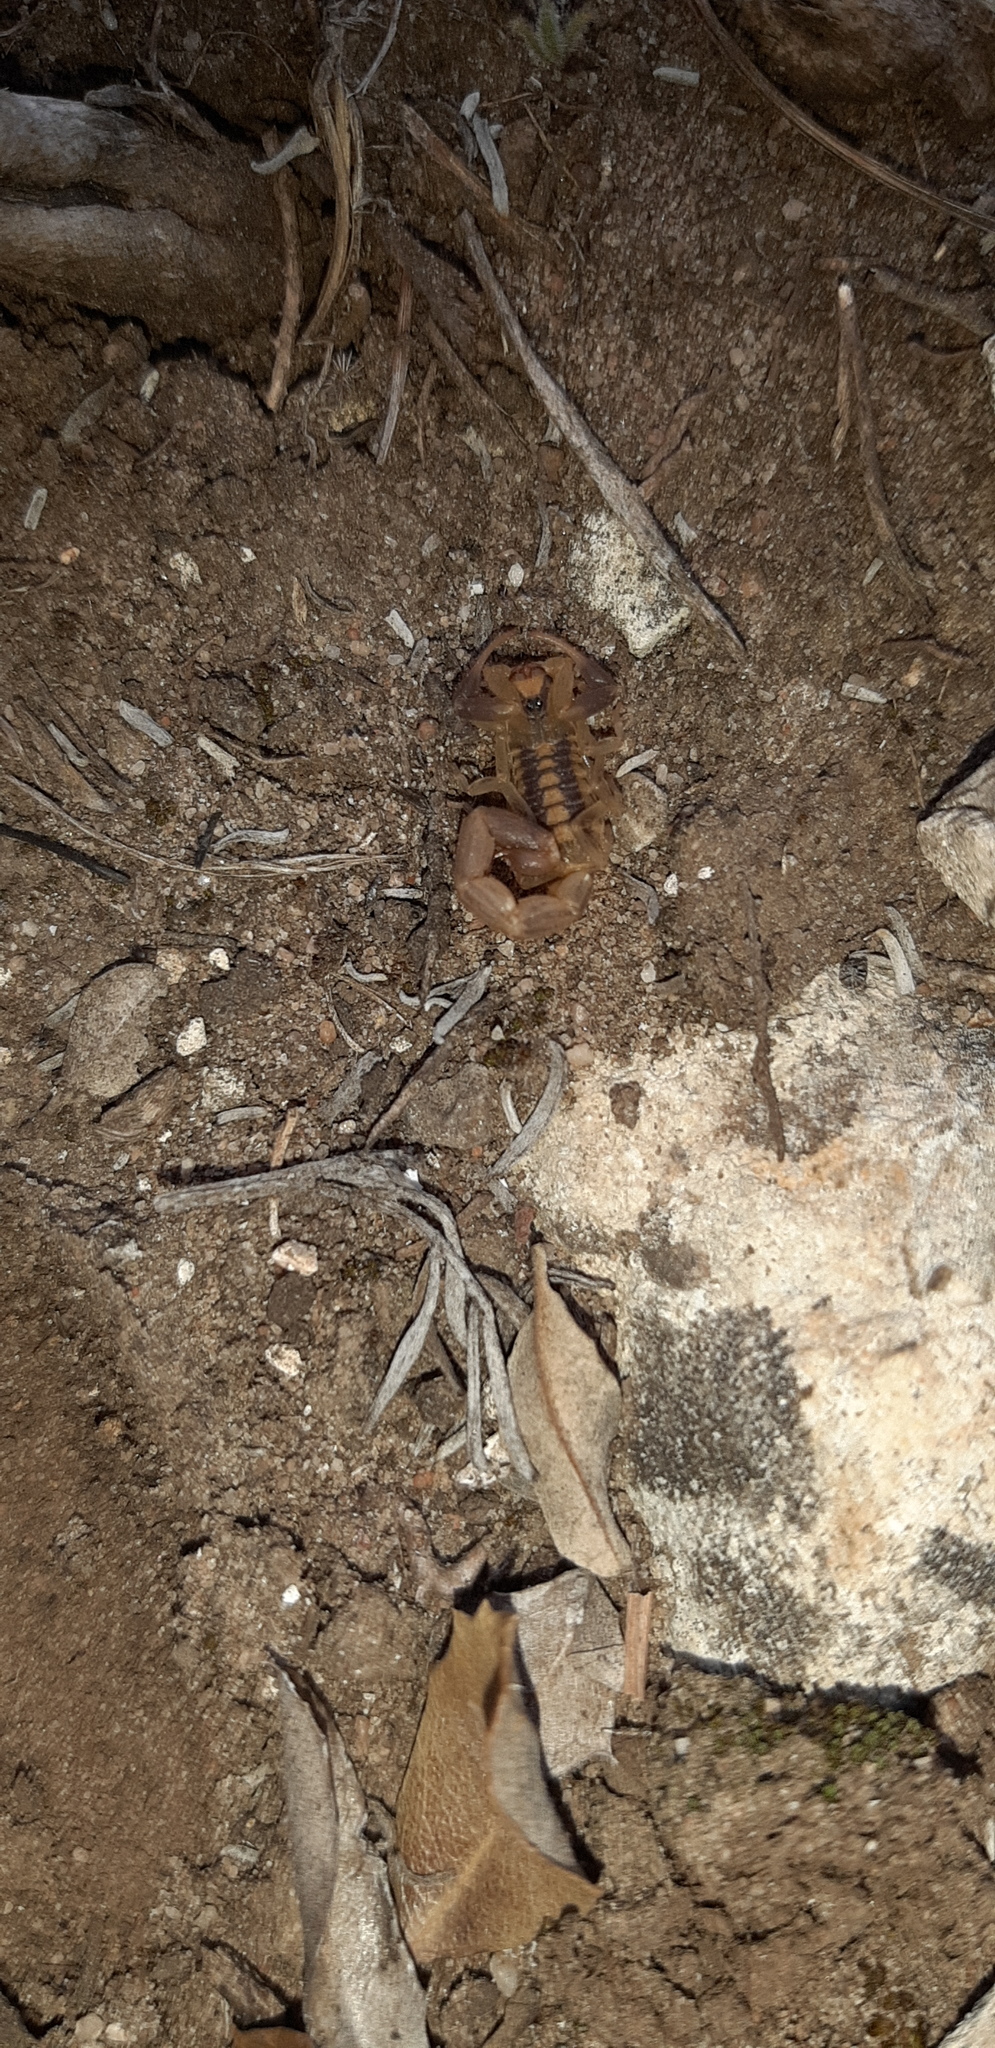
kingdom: Animalia
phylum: Arthropoda
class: Arachnida
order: Scorpiones
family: Buthidae
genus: Uroplectes
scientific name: Uroplectes triangulifer
